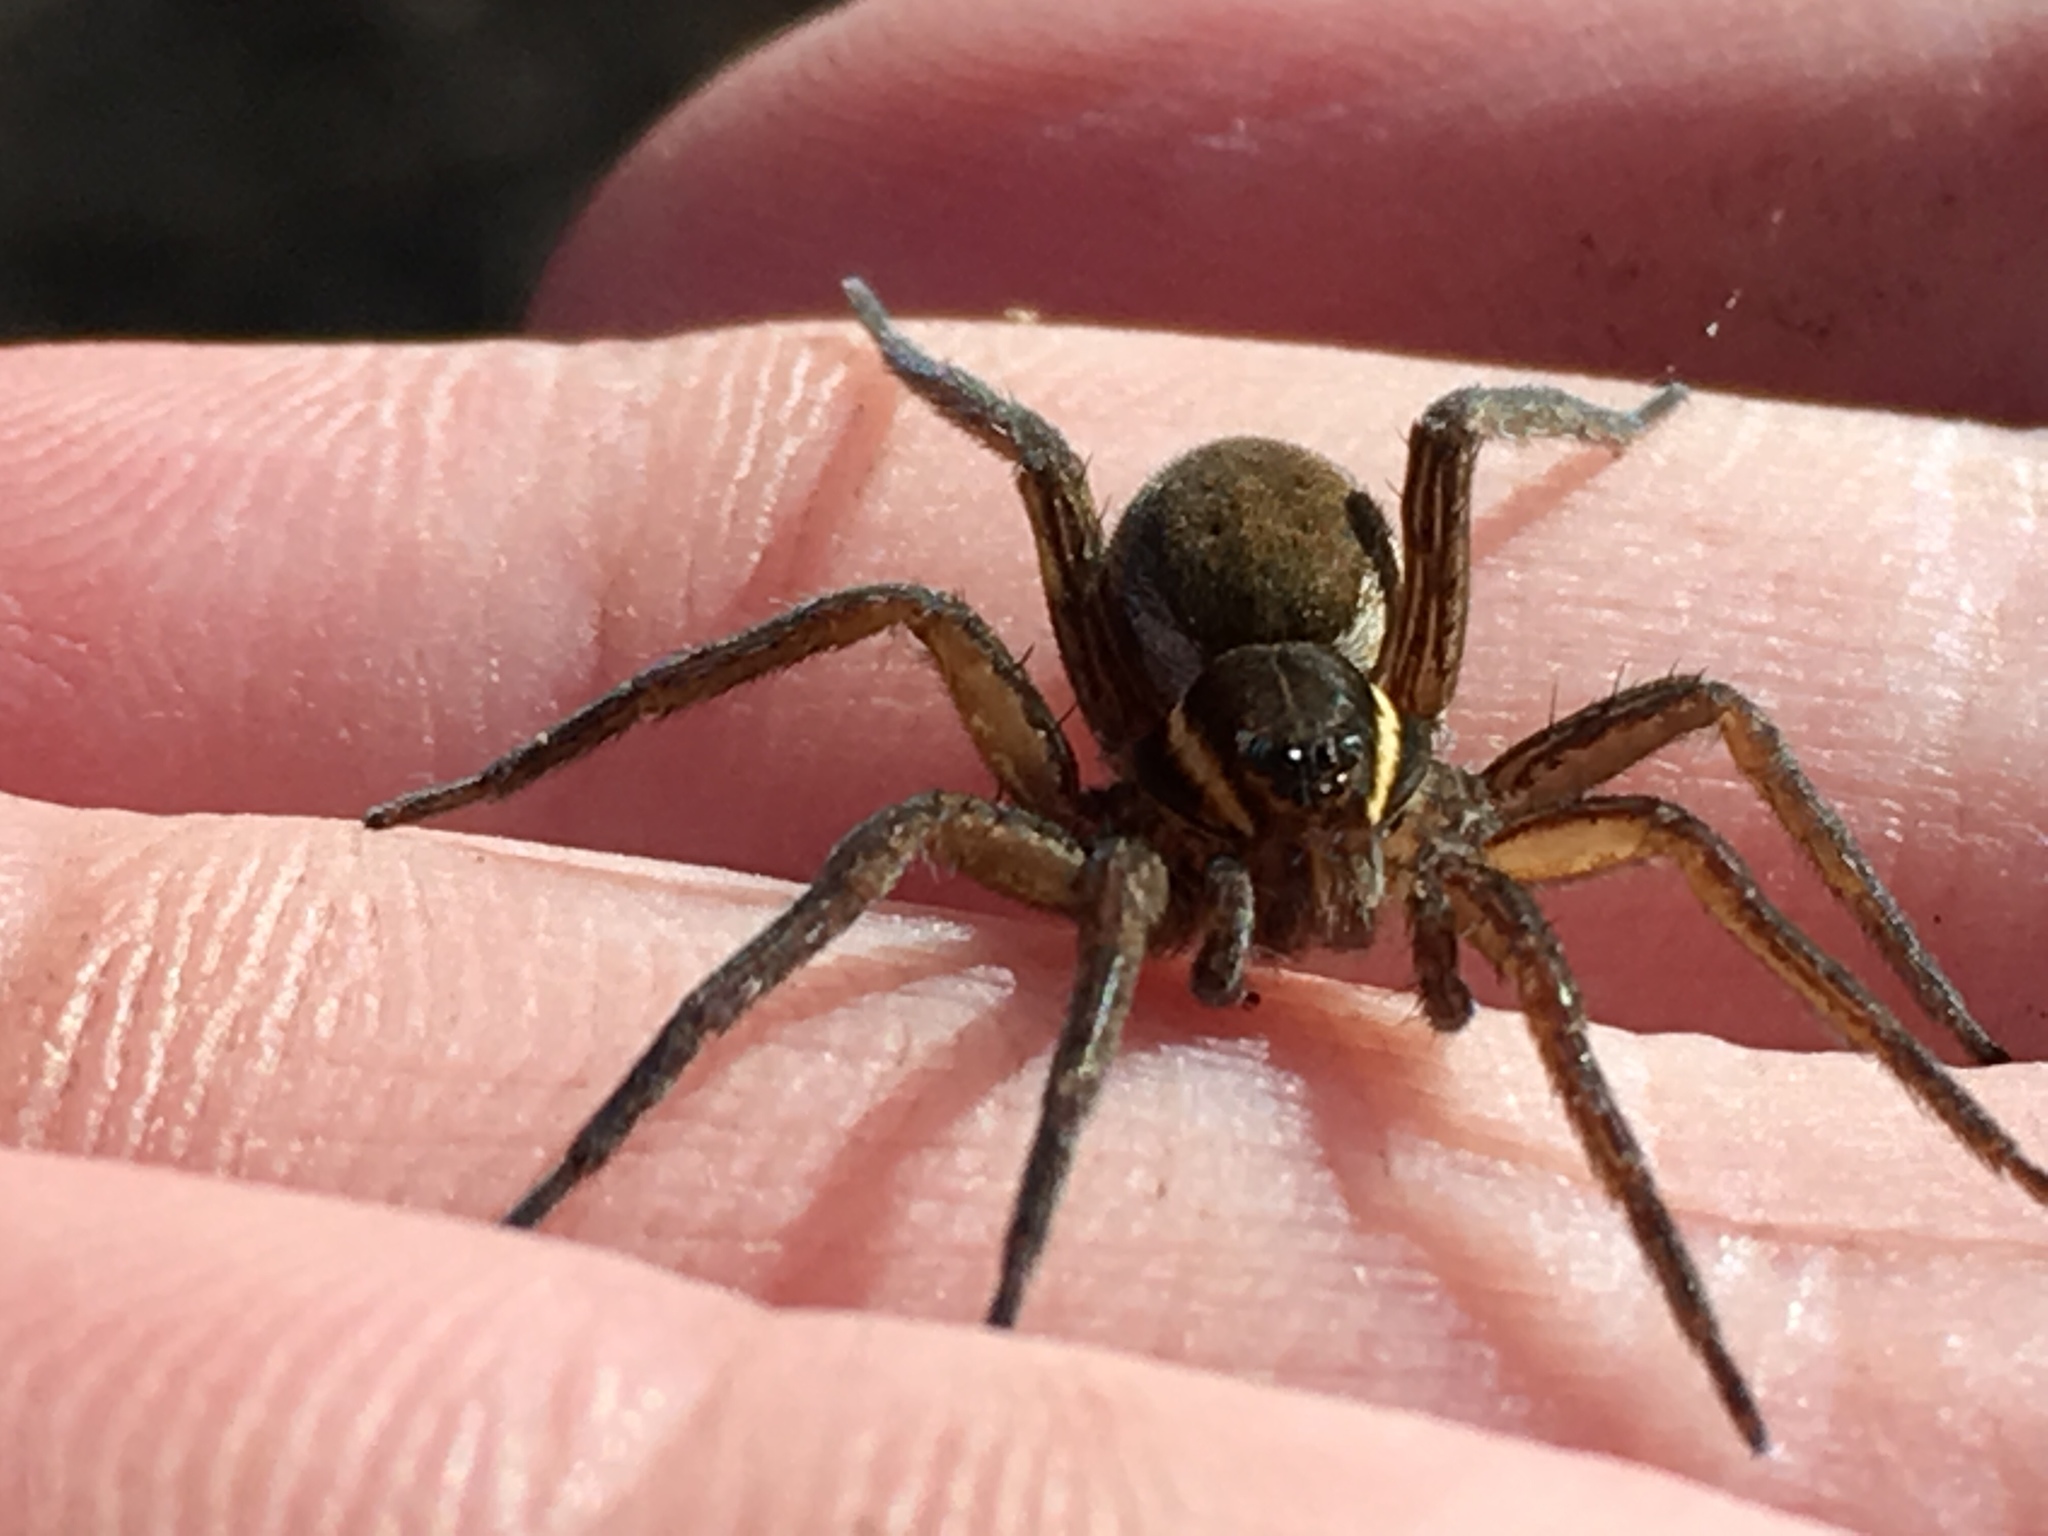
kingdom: Animalia
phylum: Arthropoda
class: Arachnida
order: Araneae
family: Pisauridae
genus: Dolomedes
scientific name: Dolomedes triton
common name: Six-spotted fishing spider
